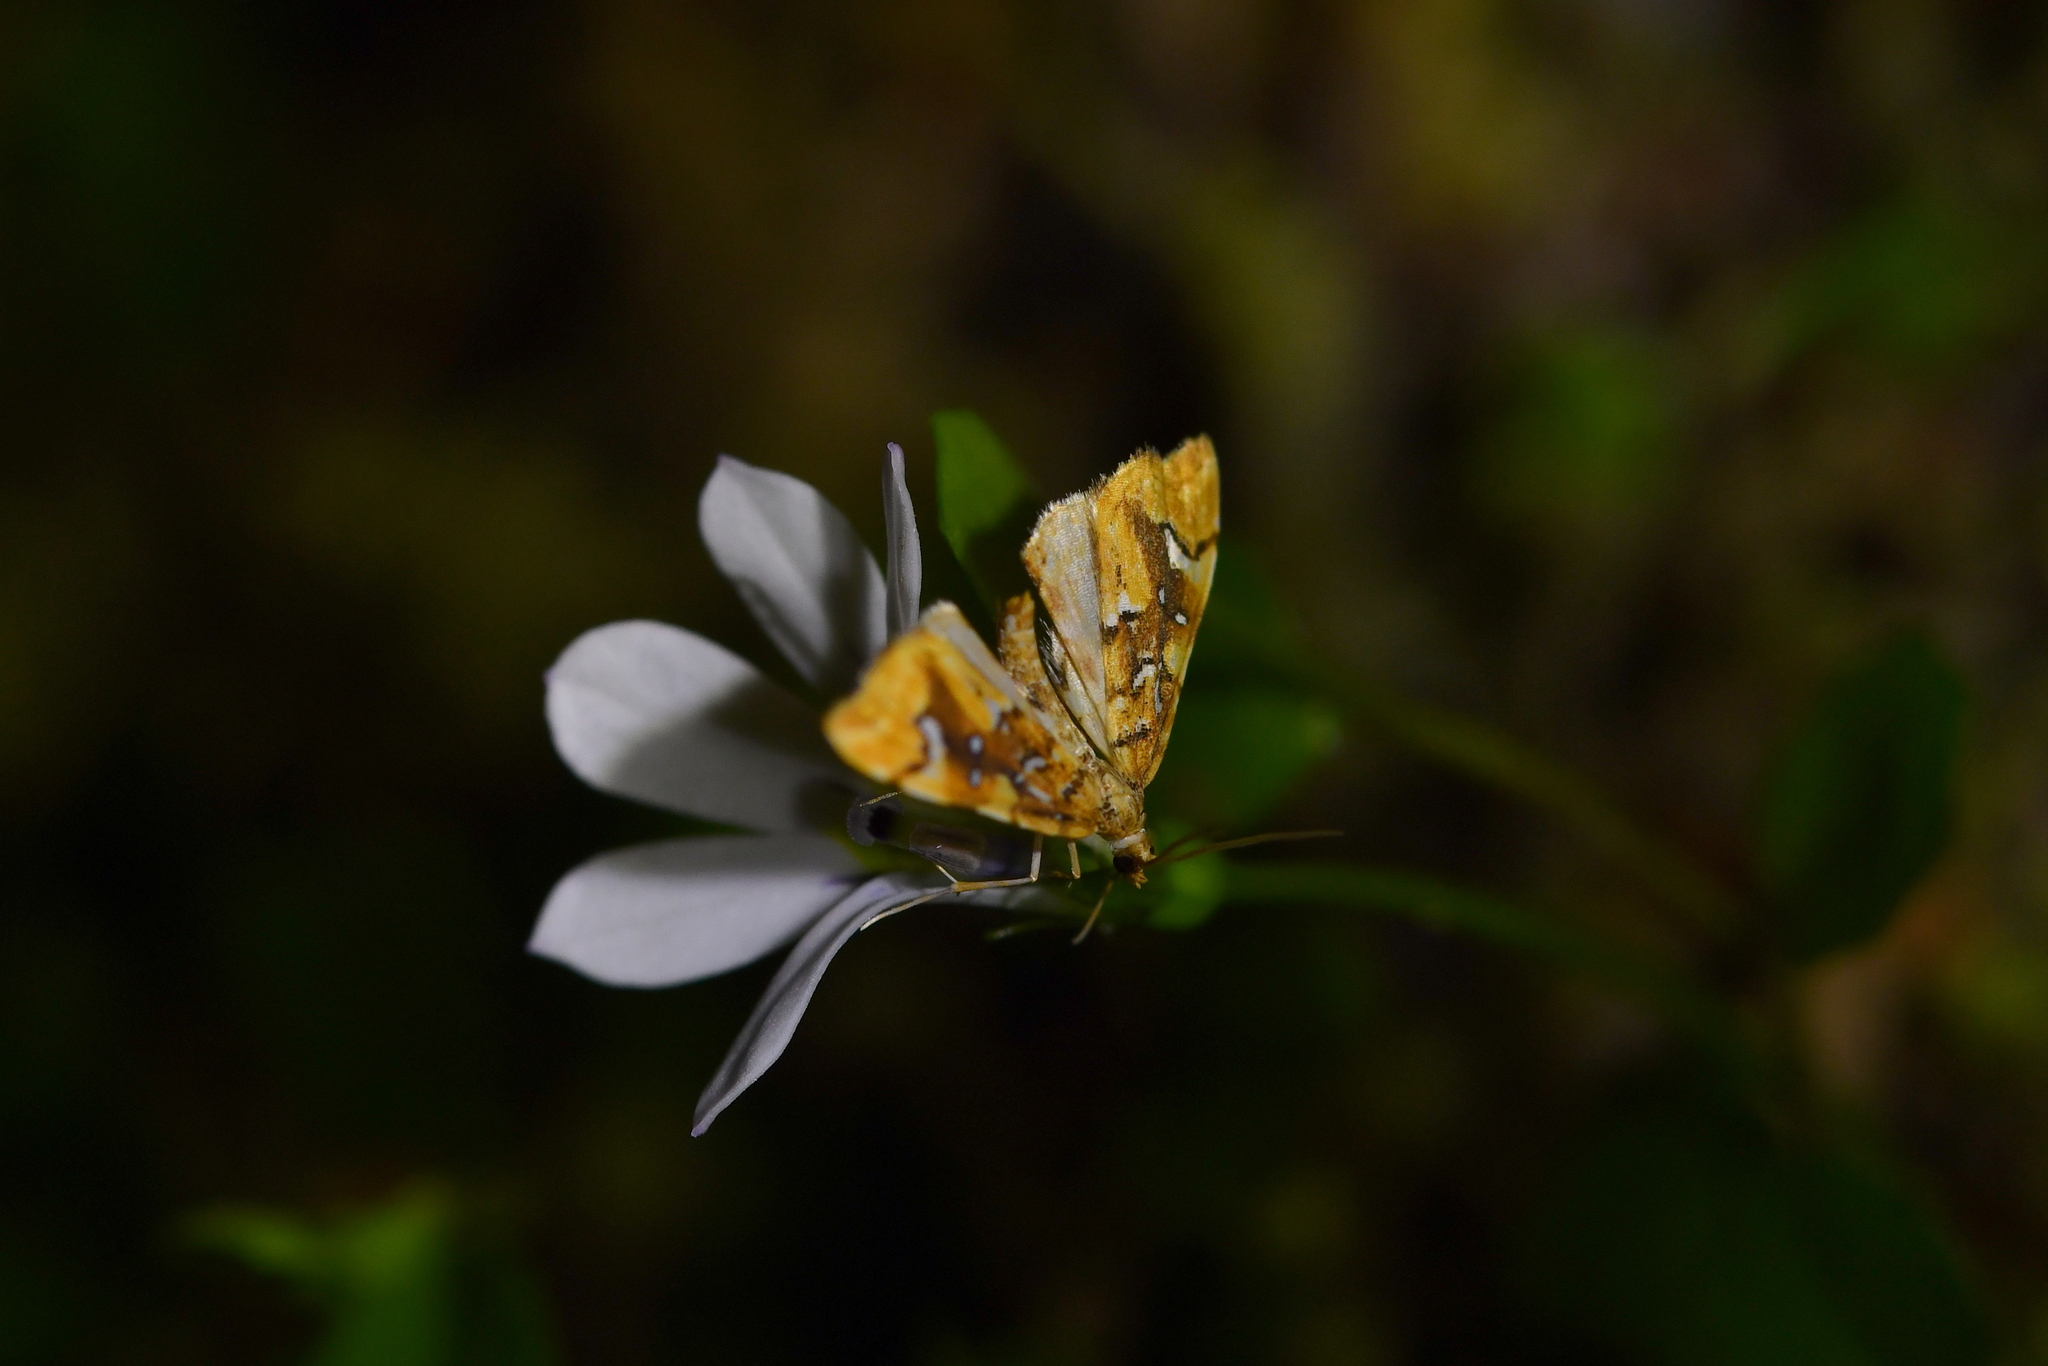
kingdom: Animalia
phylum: Arthropoda
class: Insecta
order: Lepidoptera
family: Pyralidae
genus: Musotima
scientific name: Musotima nitidalis
